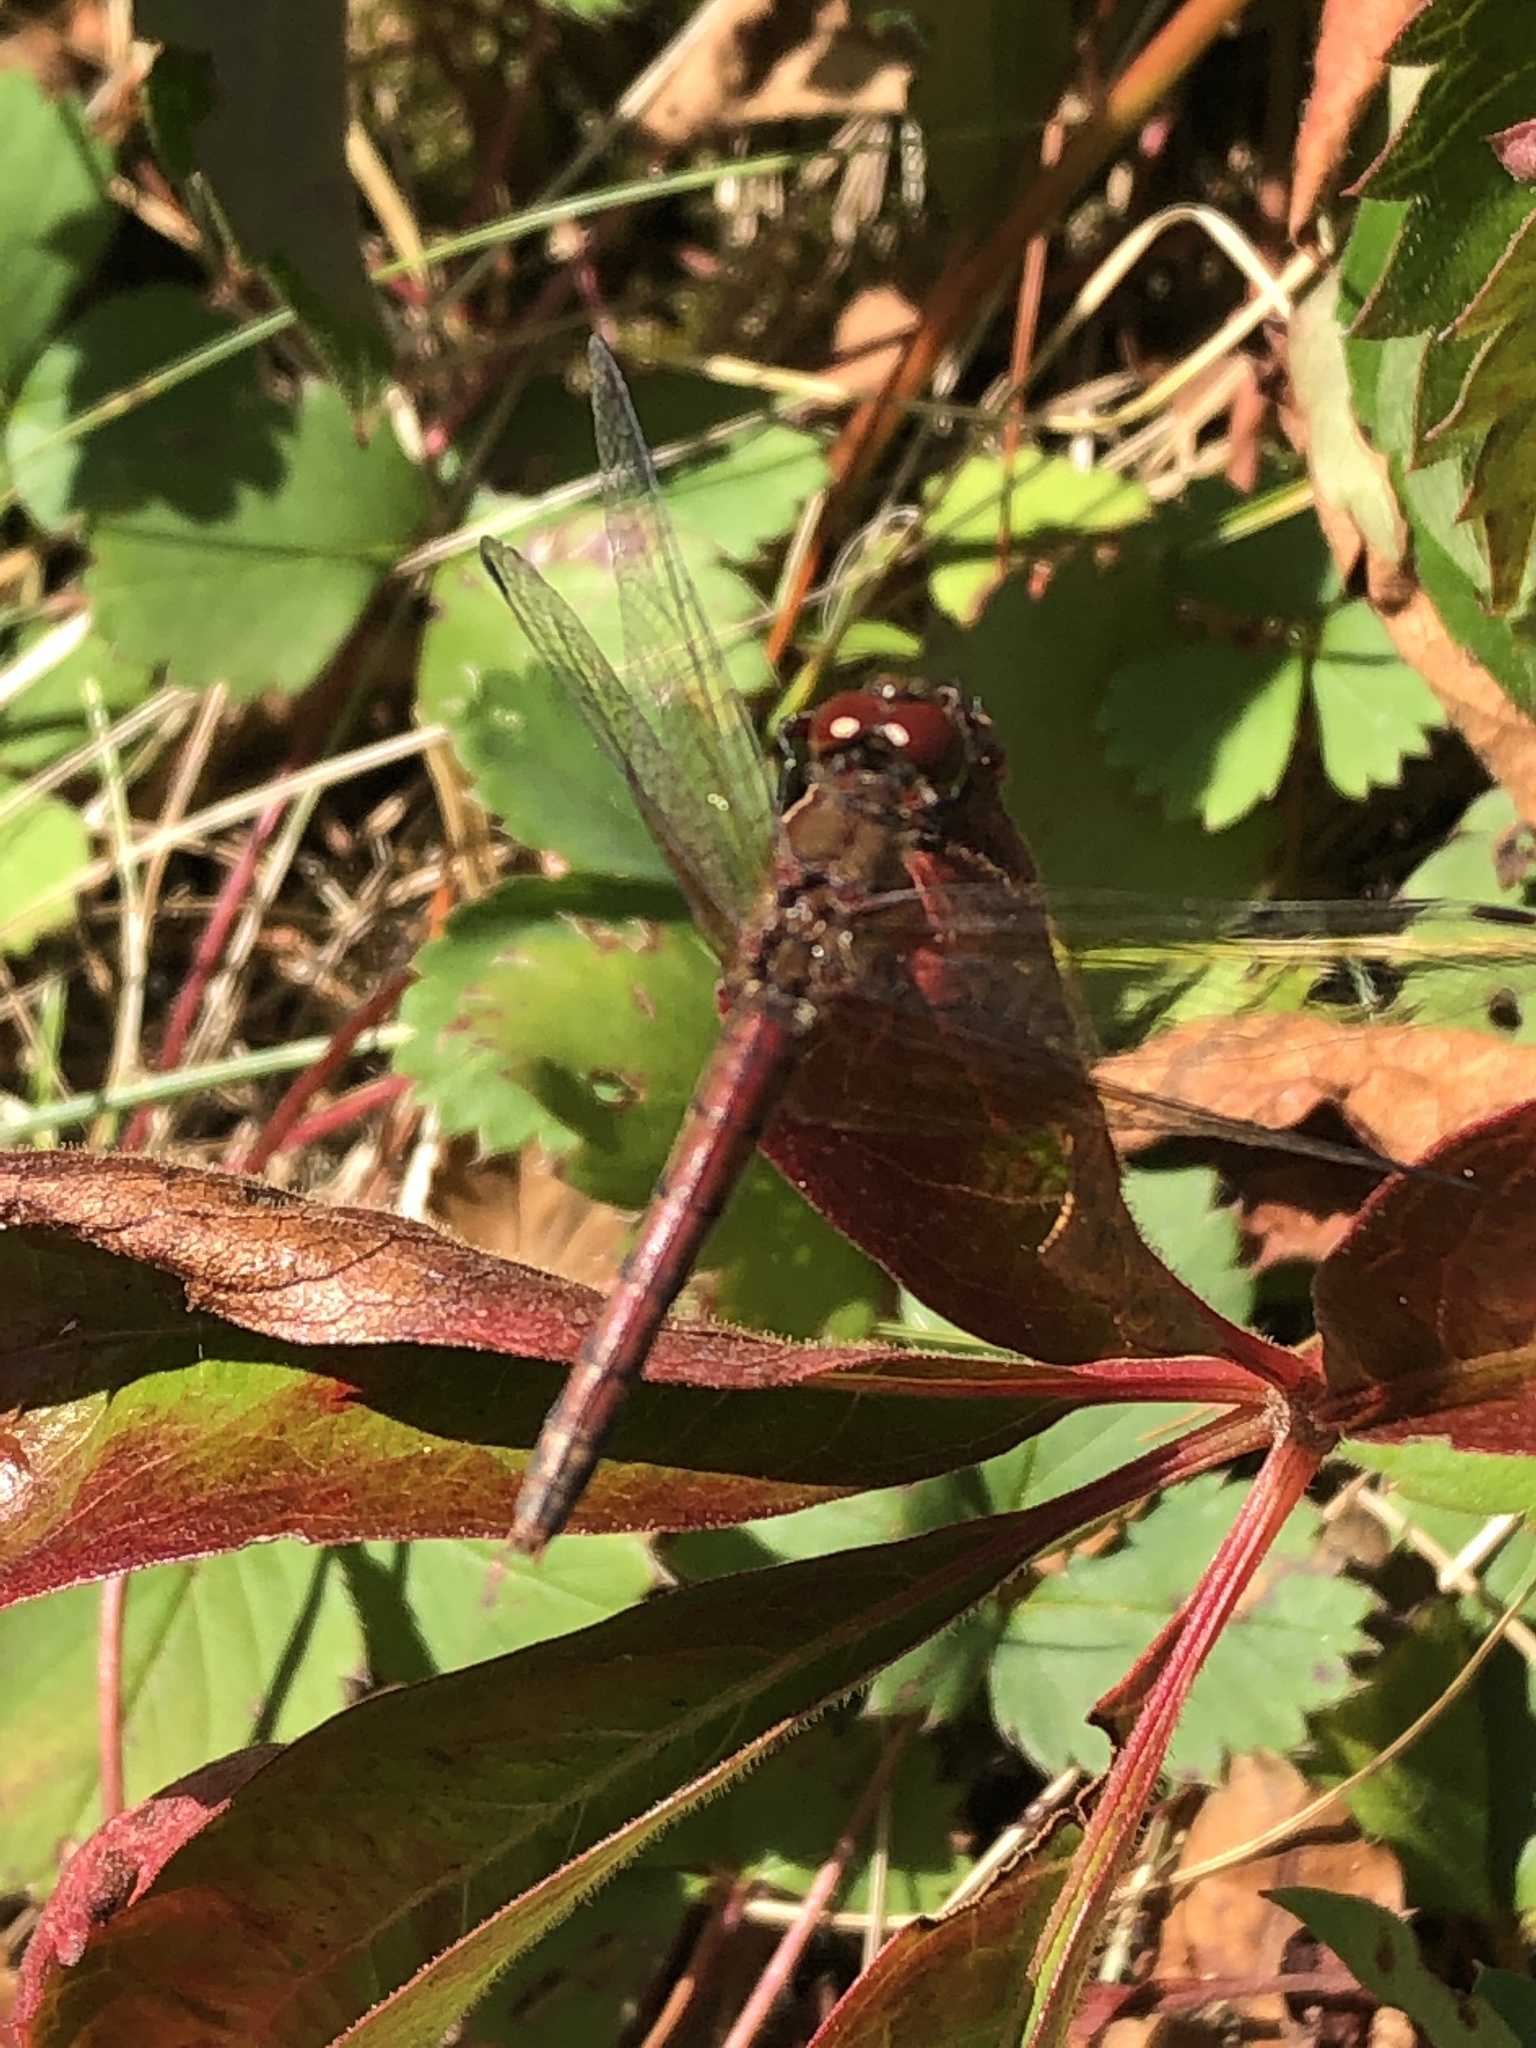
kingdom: Animalia
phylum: Arthropoda
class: Insecta
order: Odonata
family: Libellulidae
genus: Sympetrum
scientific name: Sympetrum semicinctum
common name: Band-winged meadowhawk
